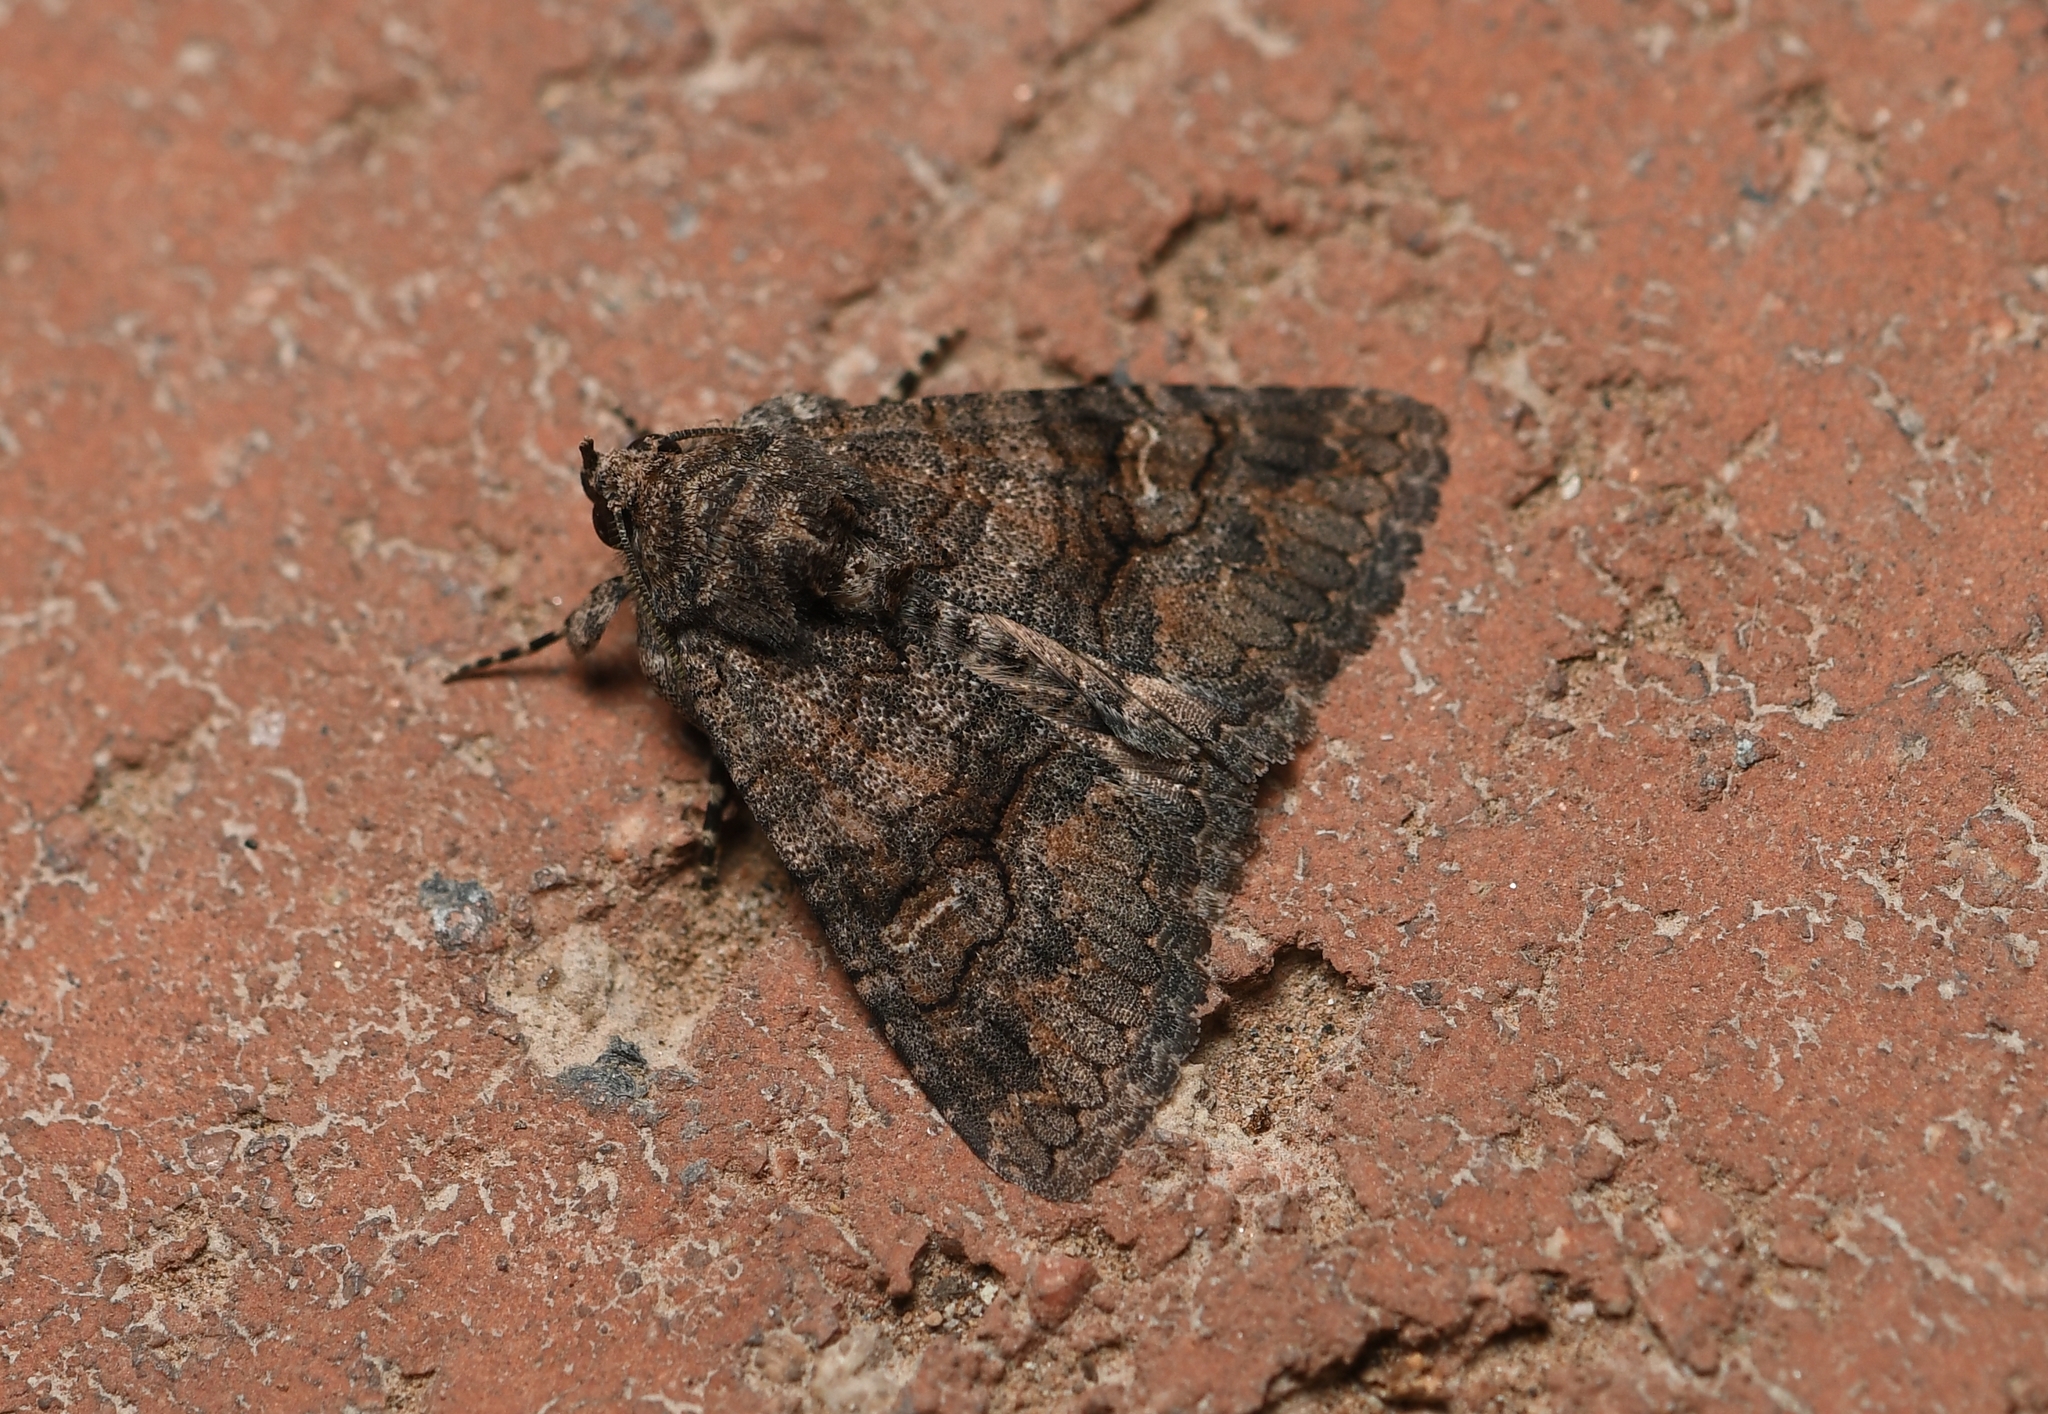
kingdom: Animalia
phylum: Arthropoda
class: Insecta
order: Lepidoptera
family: Erebidae
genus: Elousa
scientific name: Elousa mima
